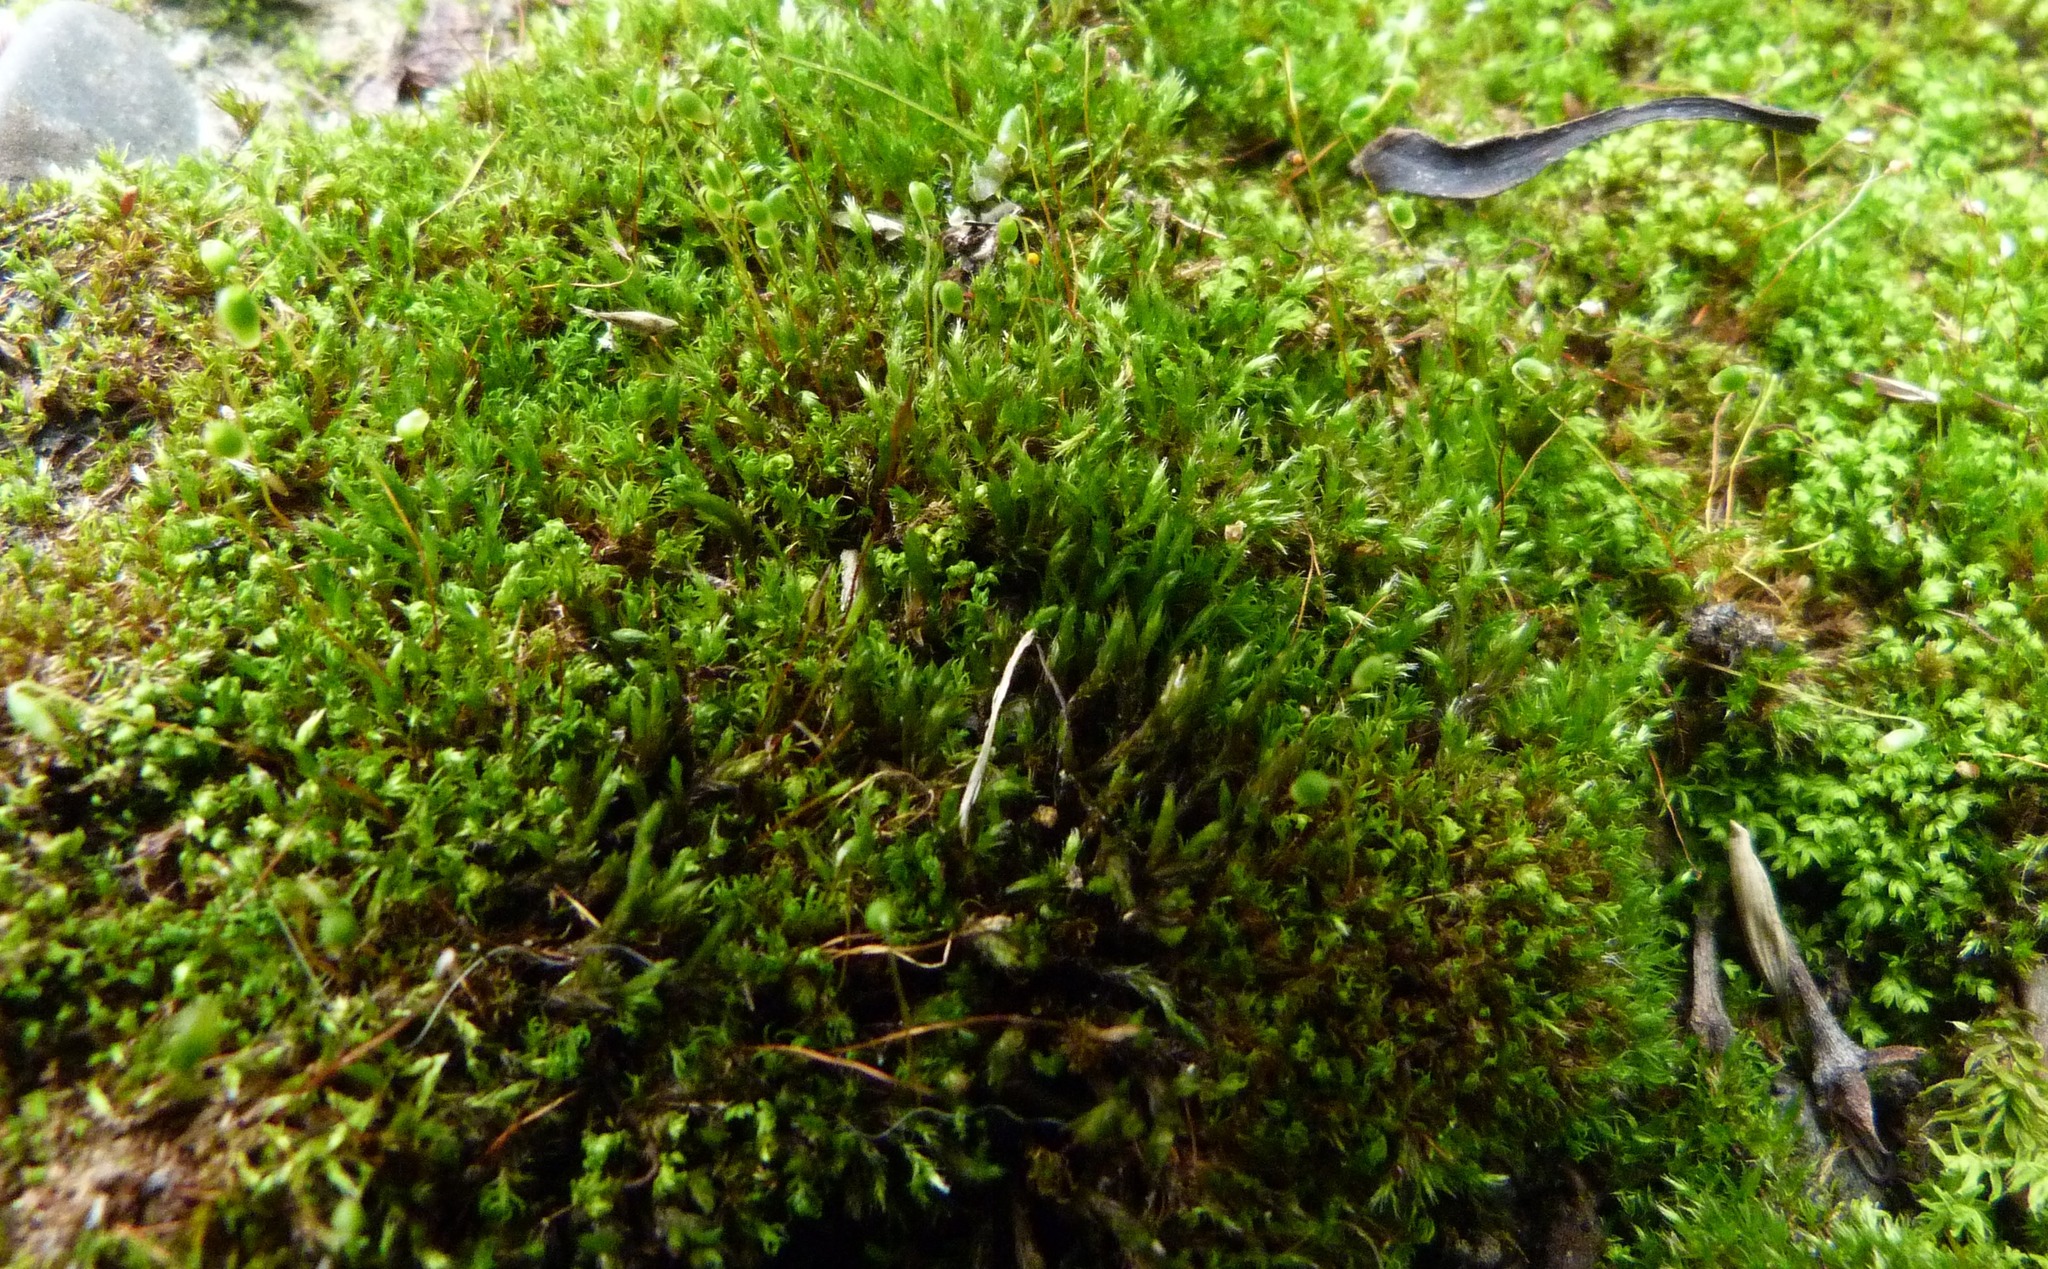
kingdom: Plantae
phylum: Bryophyta
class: Bryopsida
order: Bryales
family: Bryaceae
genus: Gemmabryum
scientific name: Gemmabryum coronatum
